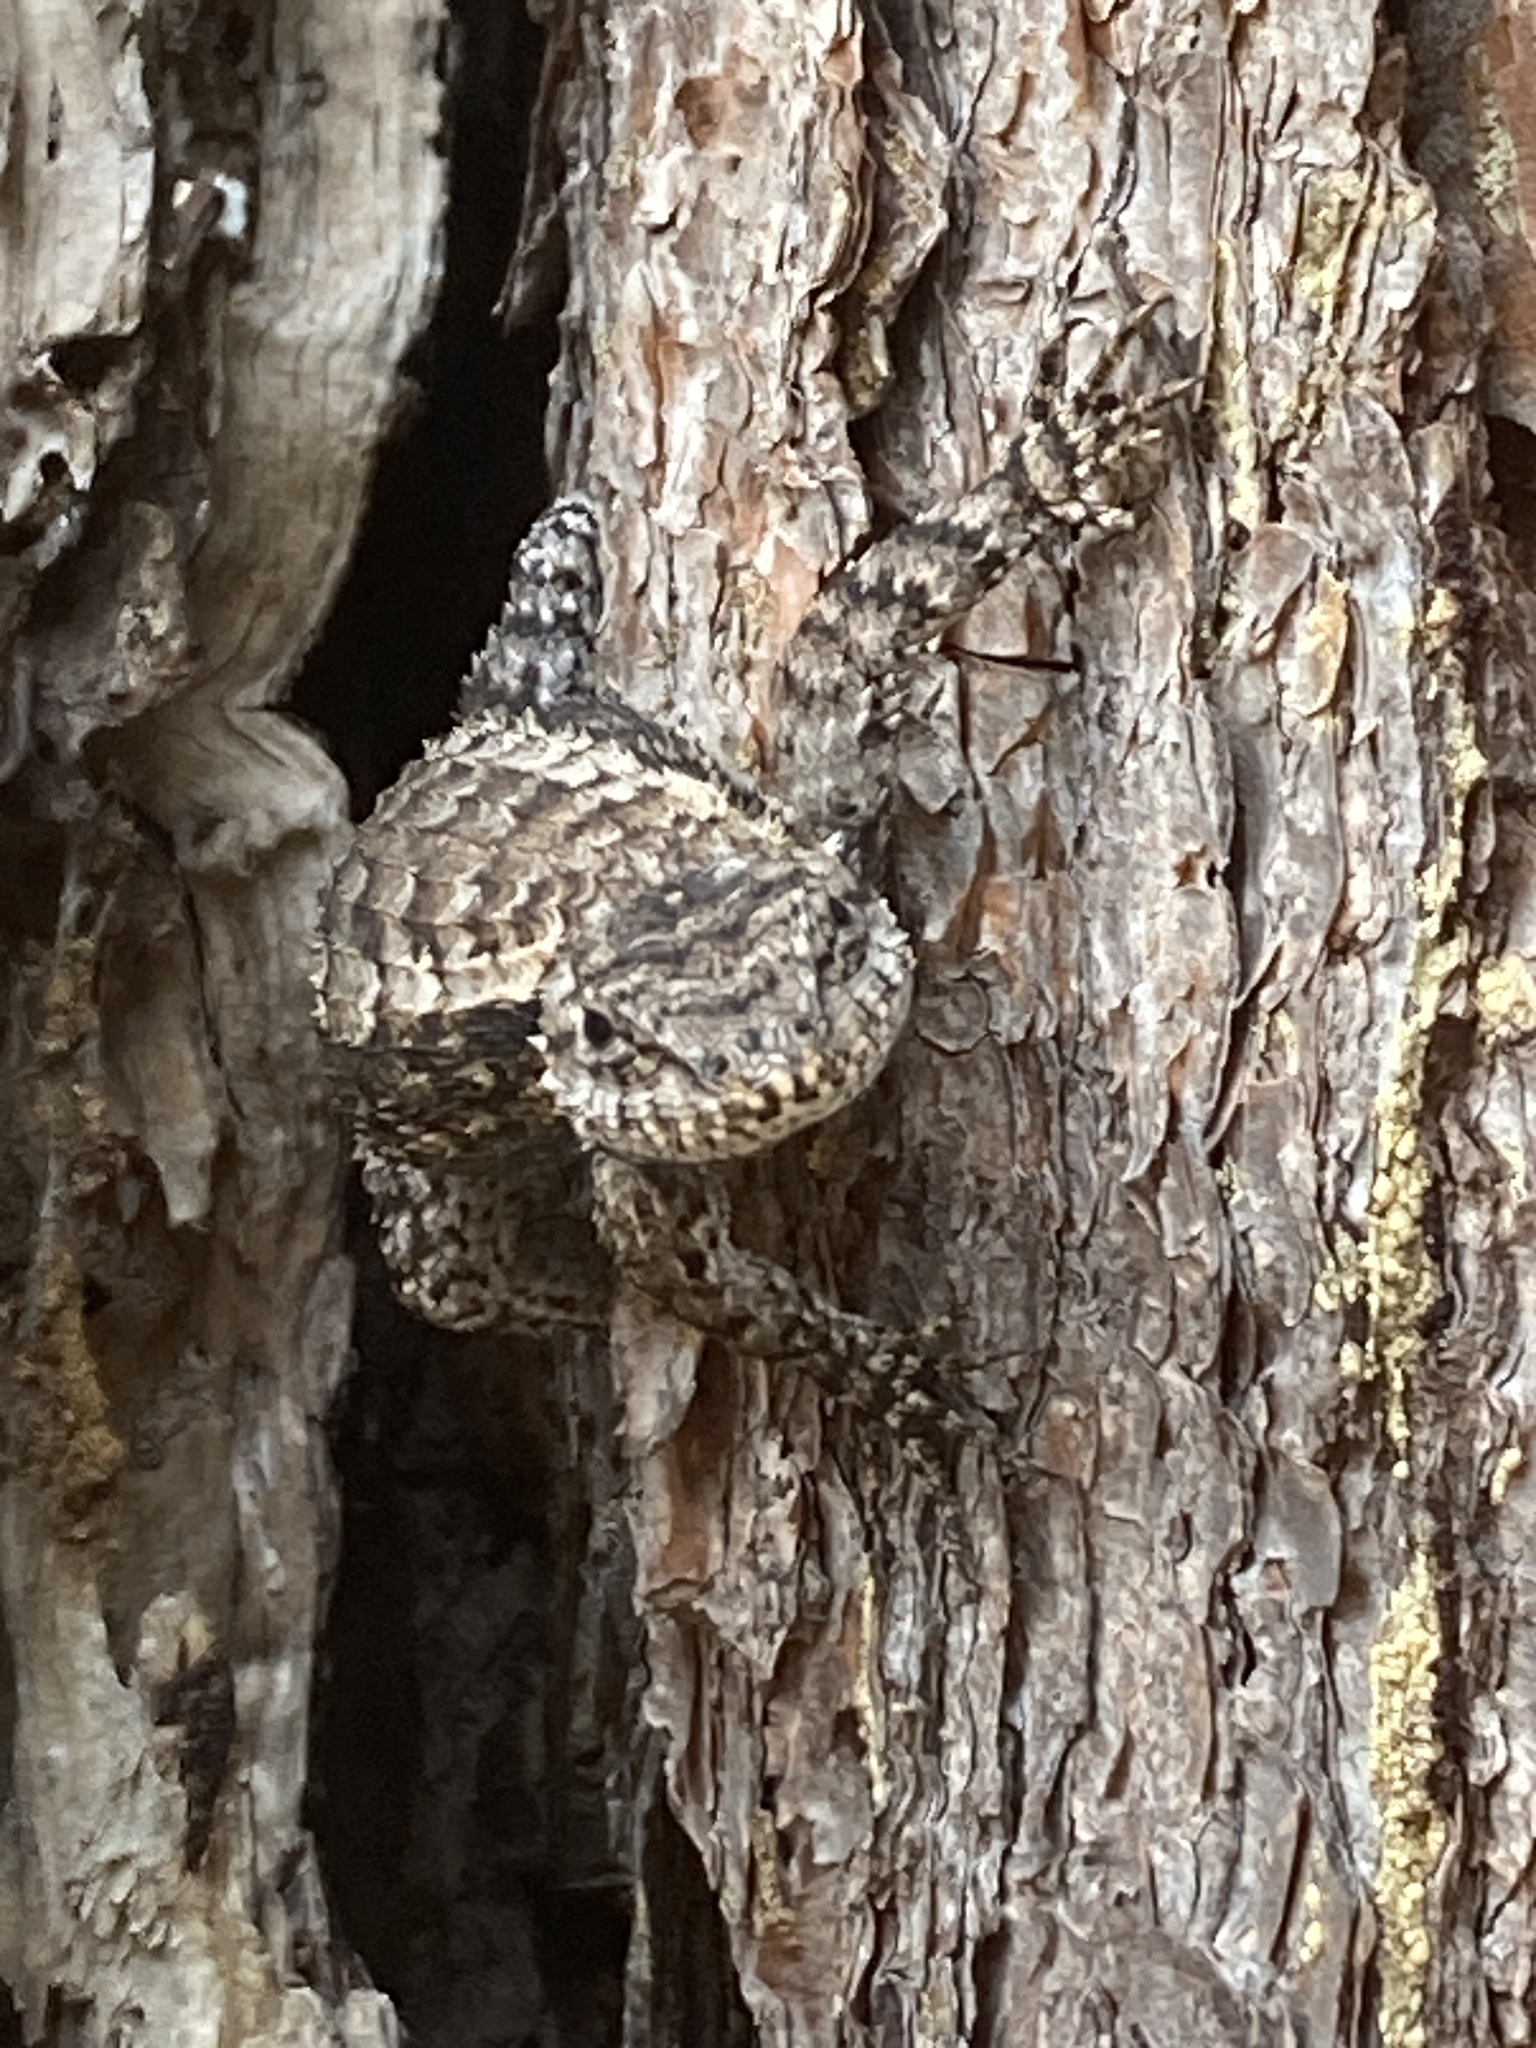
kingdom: Animalia
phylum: Chordata
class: Squamata
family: Phrynosomatidae
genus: Sceloporus
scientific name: Sceloporus undulatus
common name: Eastern fence lizard
